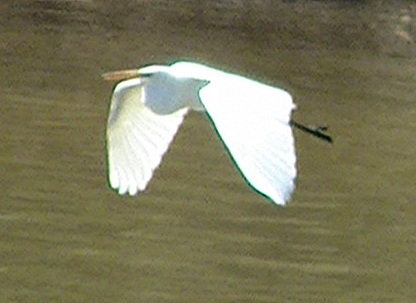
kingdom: Animalia
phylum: Chordata
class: Aves
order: Pelecaniformes
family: Ardeidae
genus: Ardea
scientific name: Ardea alba
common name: Great egret
